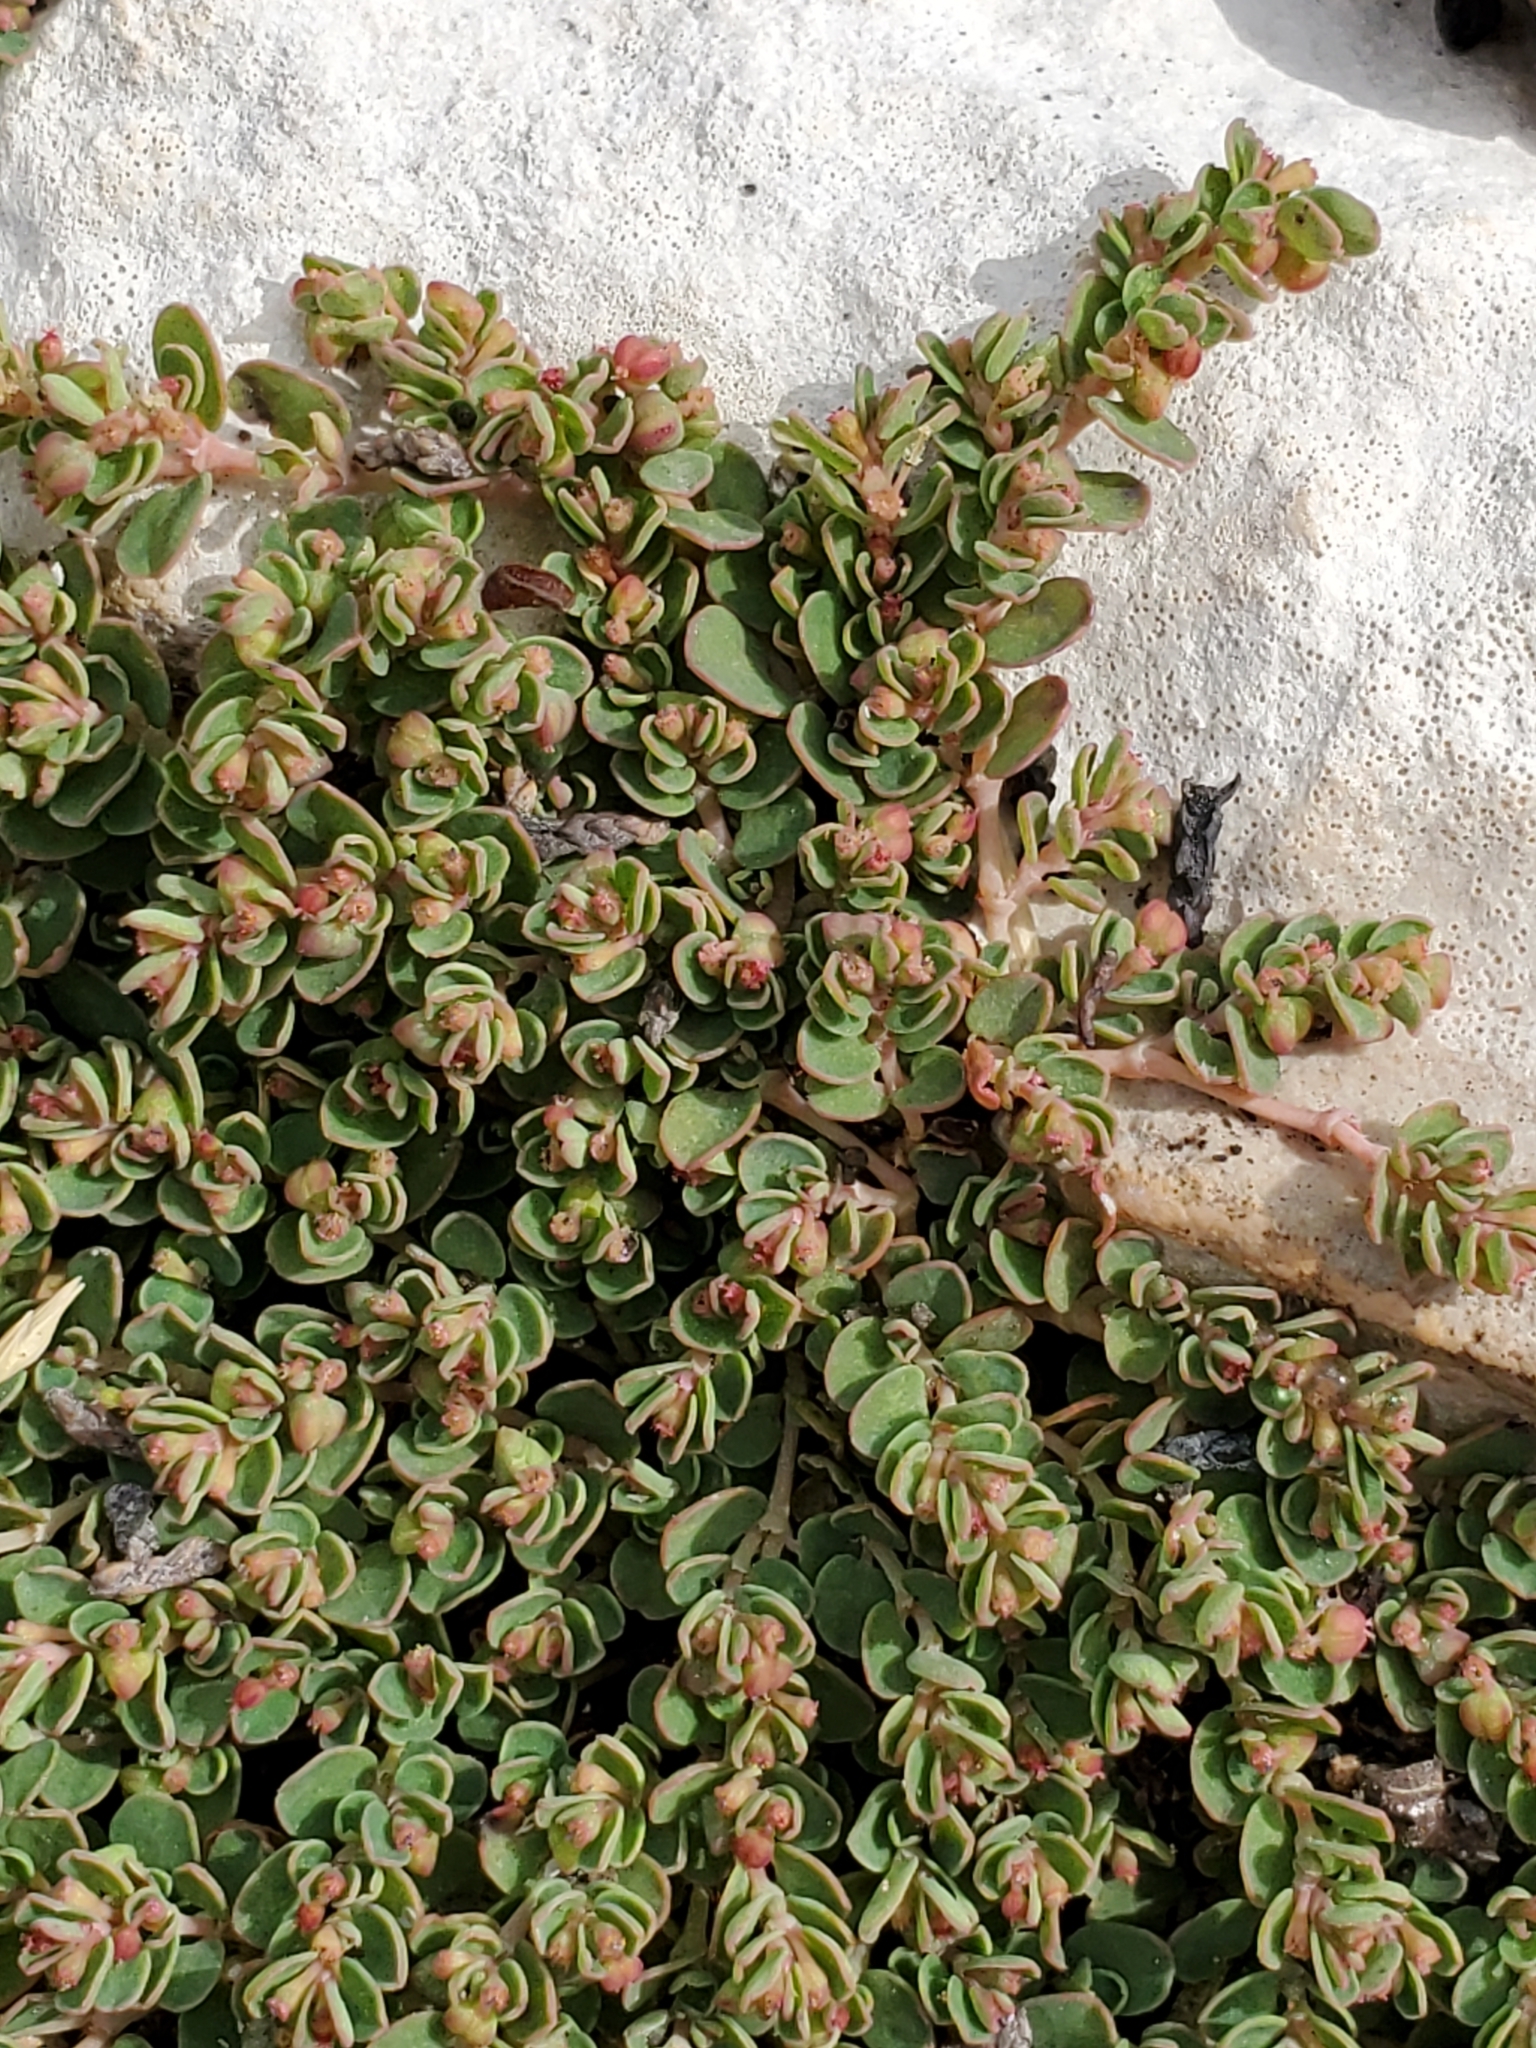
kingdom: Plantae
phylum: Tracheophyta
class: Magnoliopsida
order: Malpighiales
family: Euphorbiaceae
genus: Euphorbia
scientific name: Euphorbia serpens
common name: Matted sandmat
